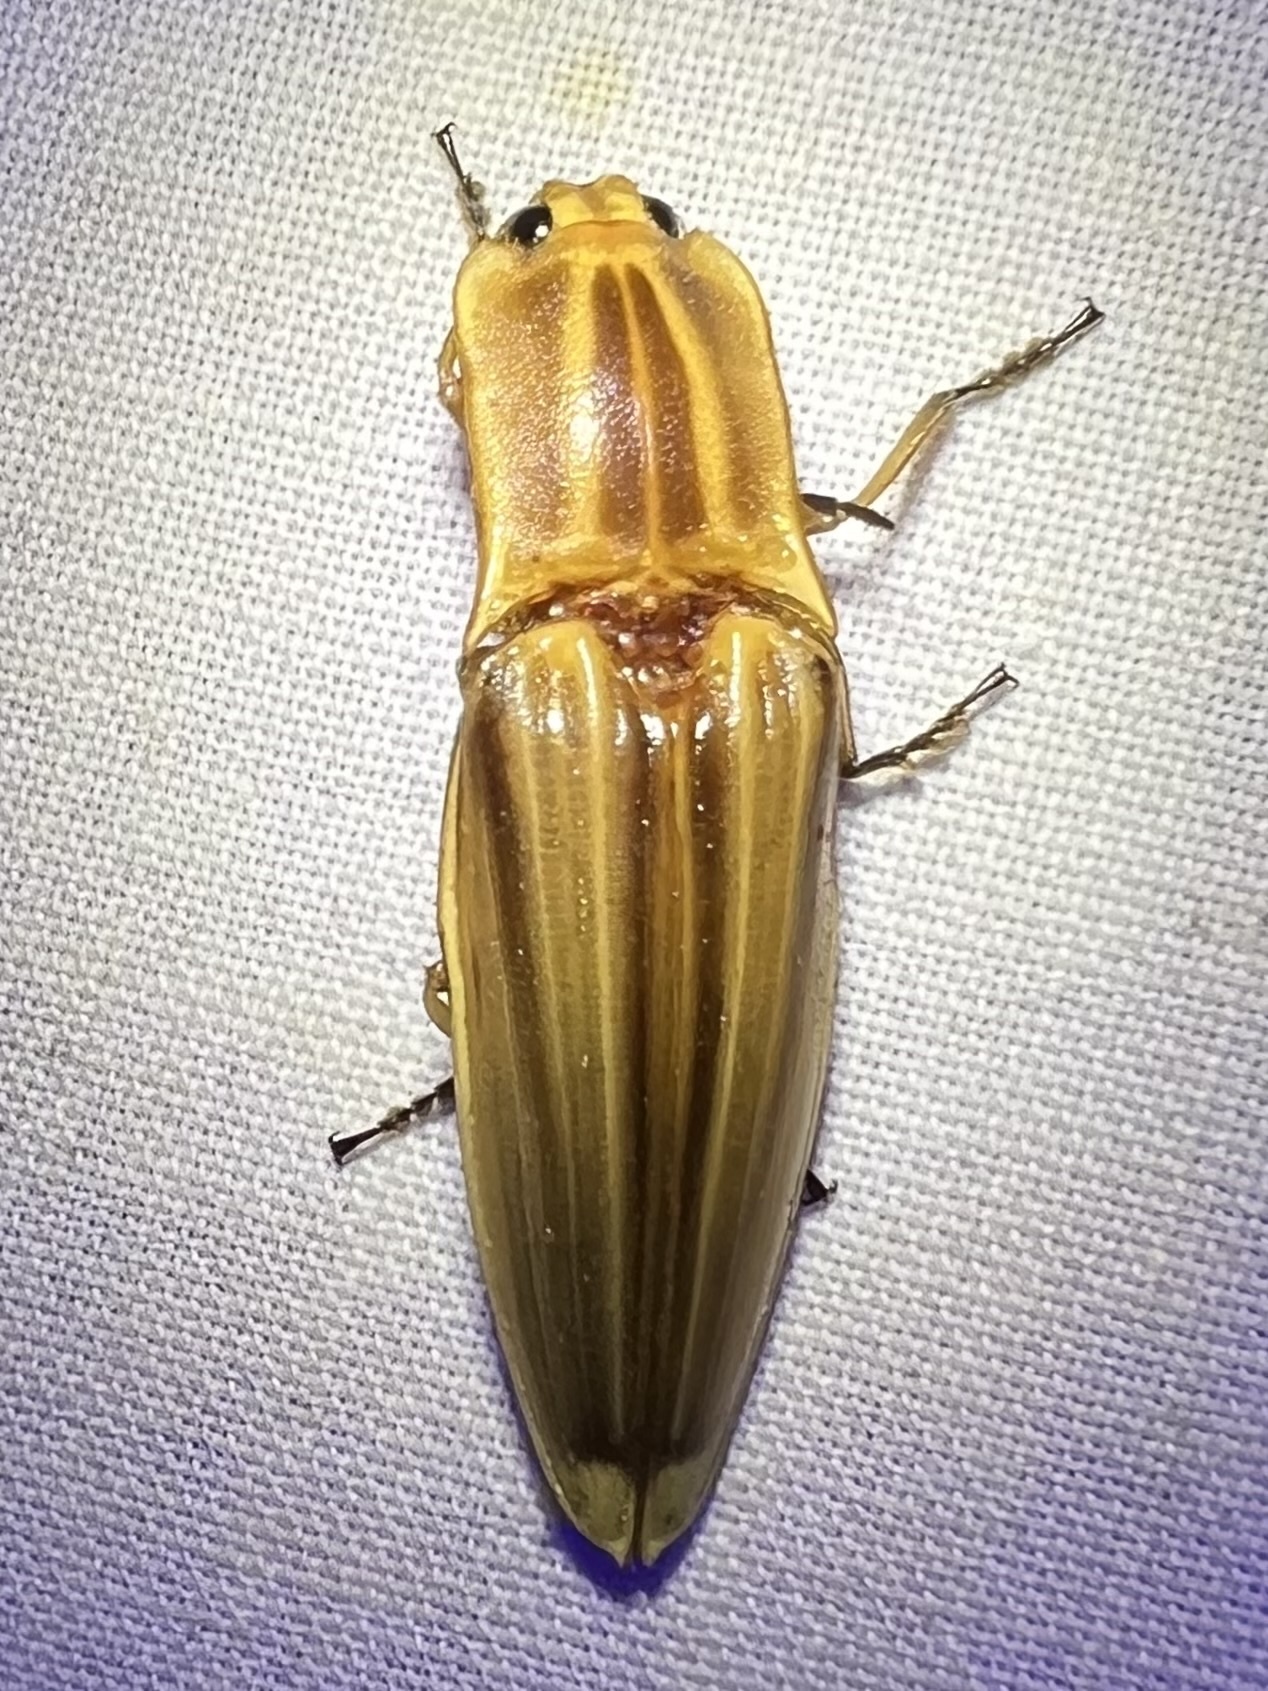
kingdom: Animalia
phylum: Arthropoda
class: Insecta
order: Coleoptera
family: Elateridae
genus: Semiotus
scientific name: Semiotus ligneus
